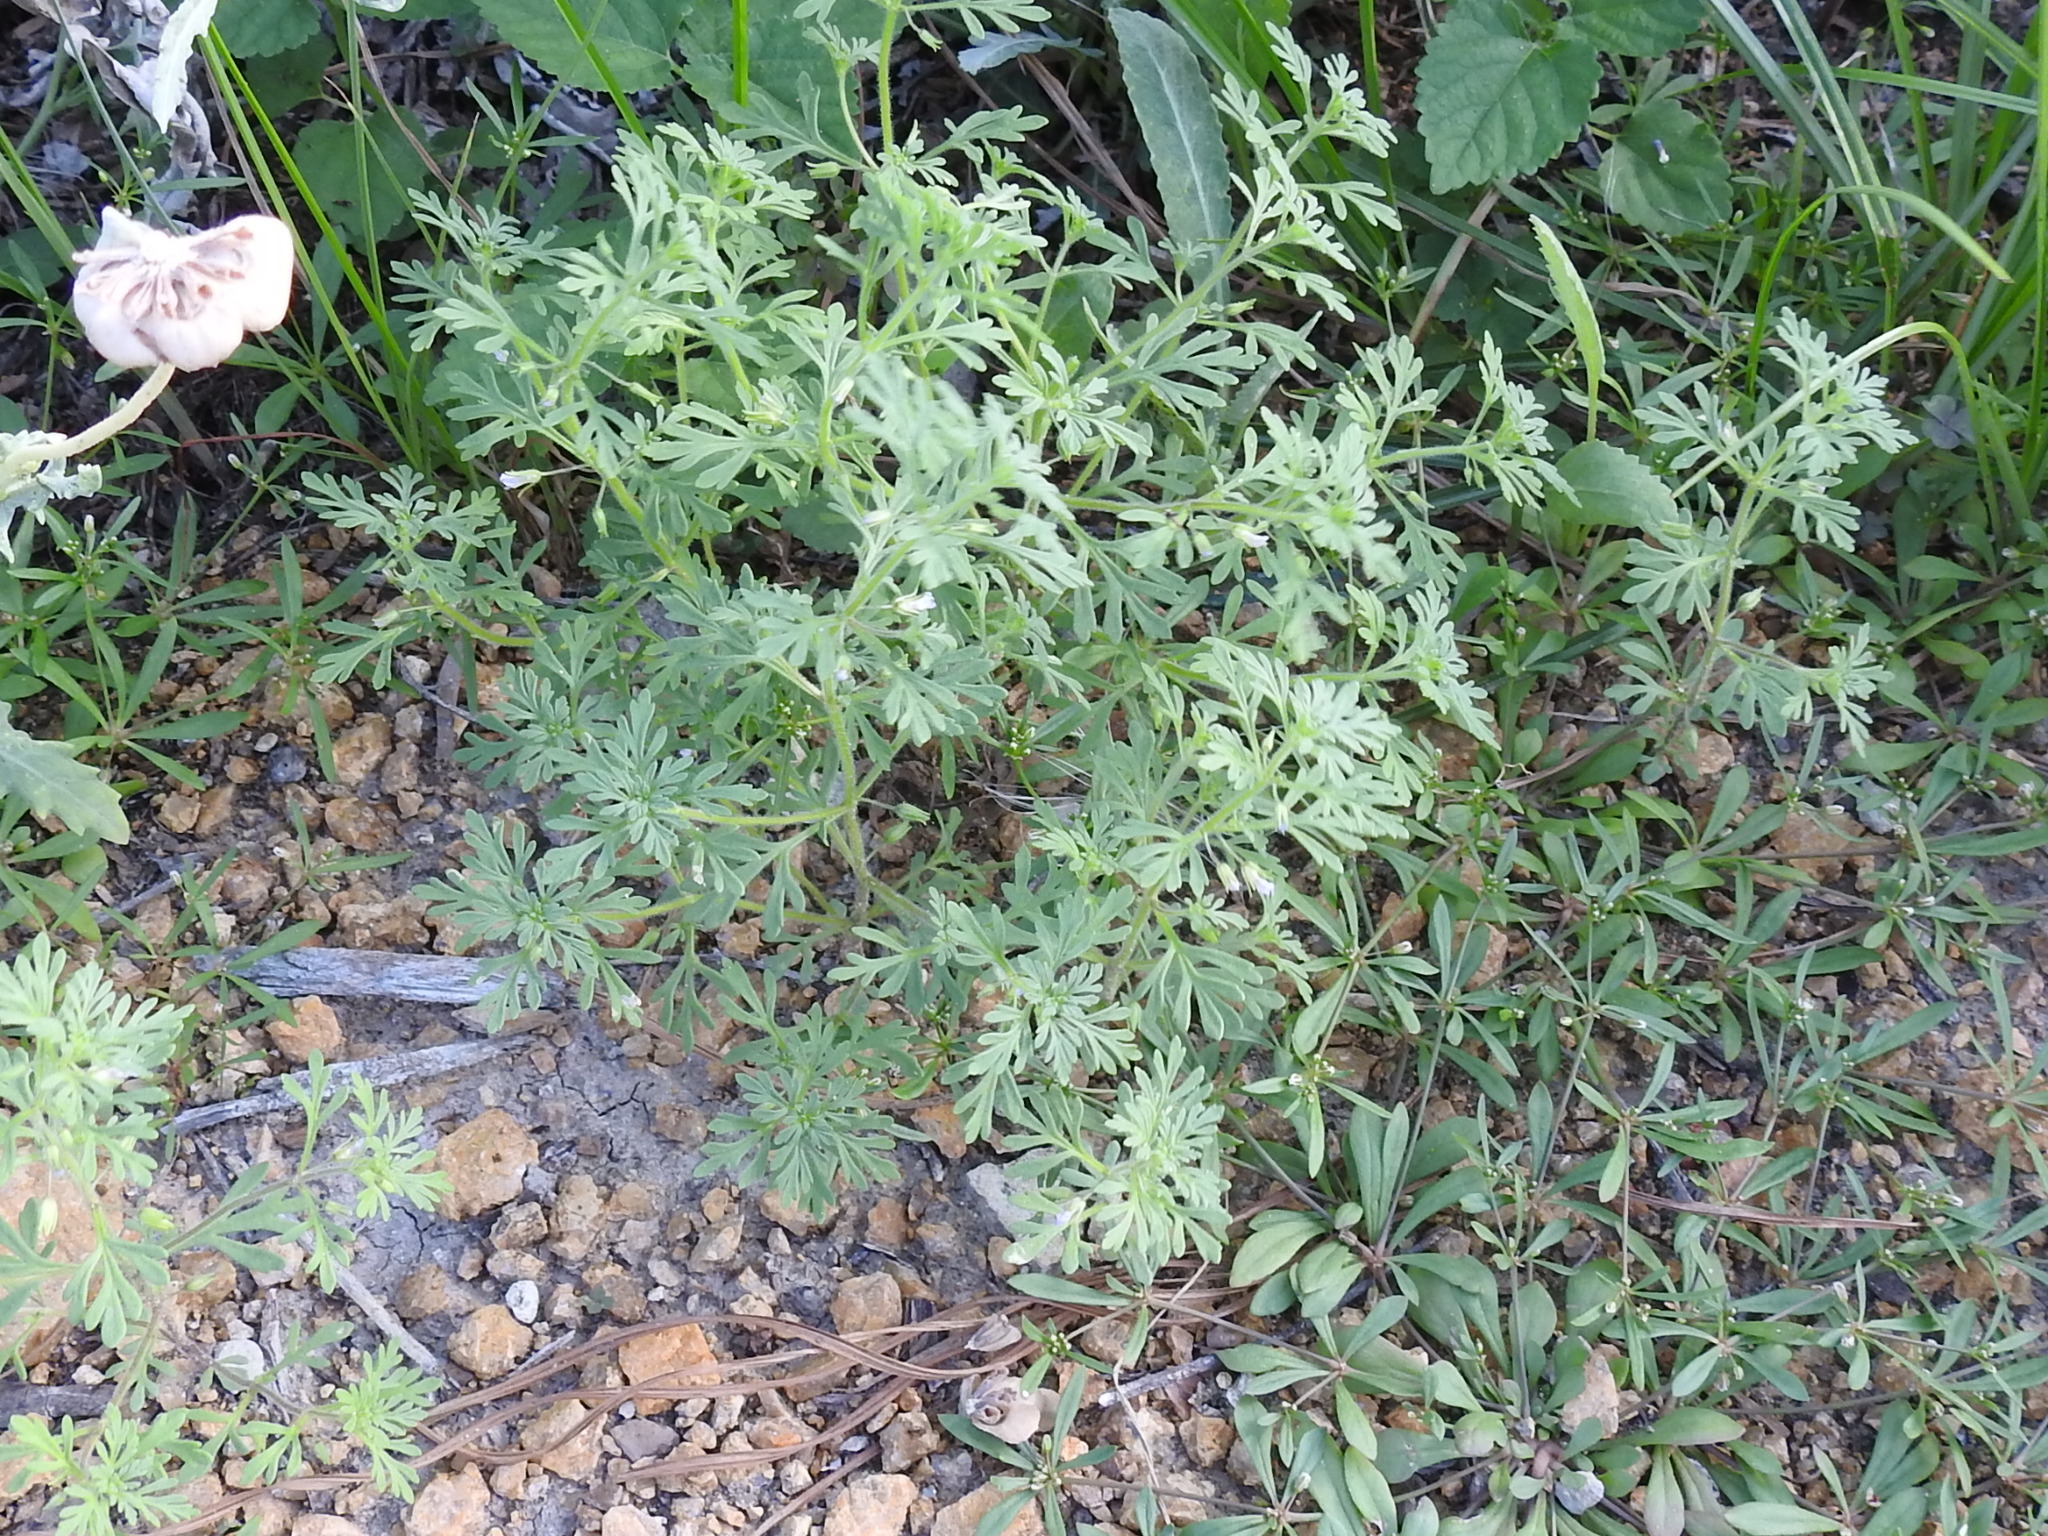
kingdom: Plantae
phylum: Tracheophyta
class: Magnoliopsida
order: Lamiales
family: Plantaginaceae
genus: Leucospora
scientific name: Leucospora multifida
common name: Narrow-leaf paleseed
